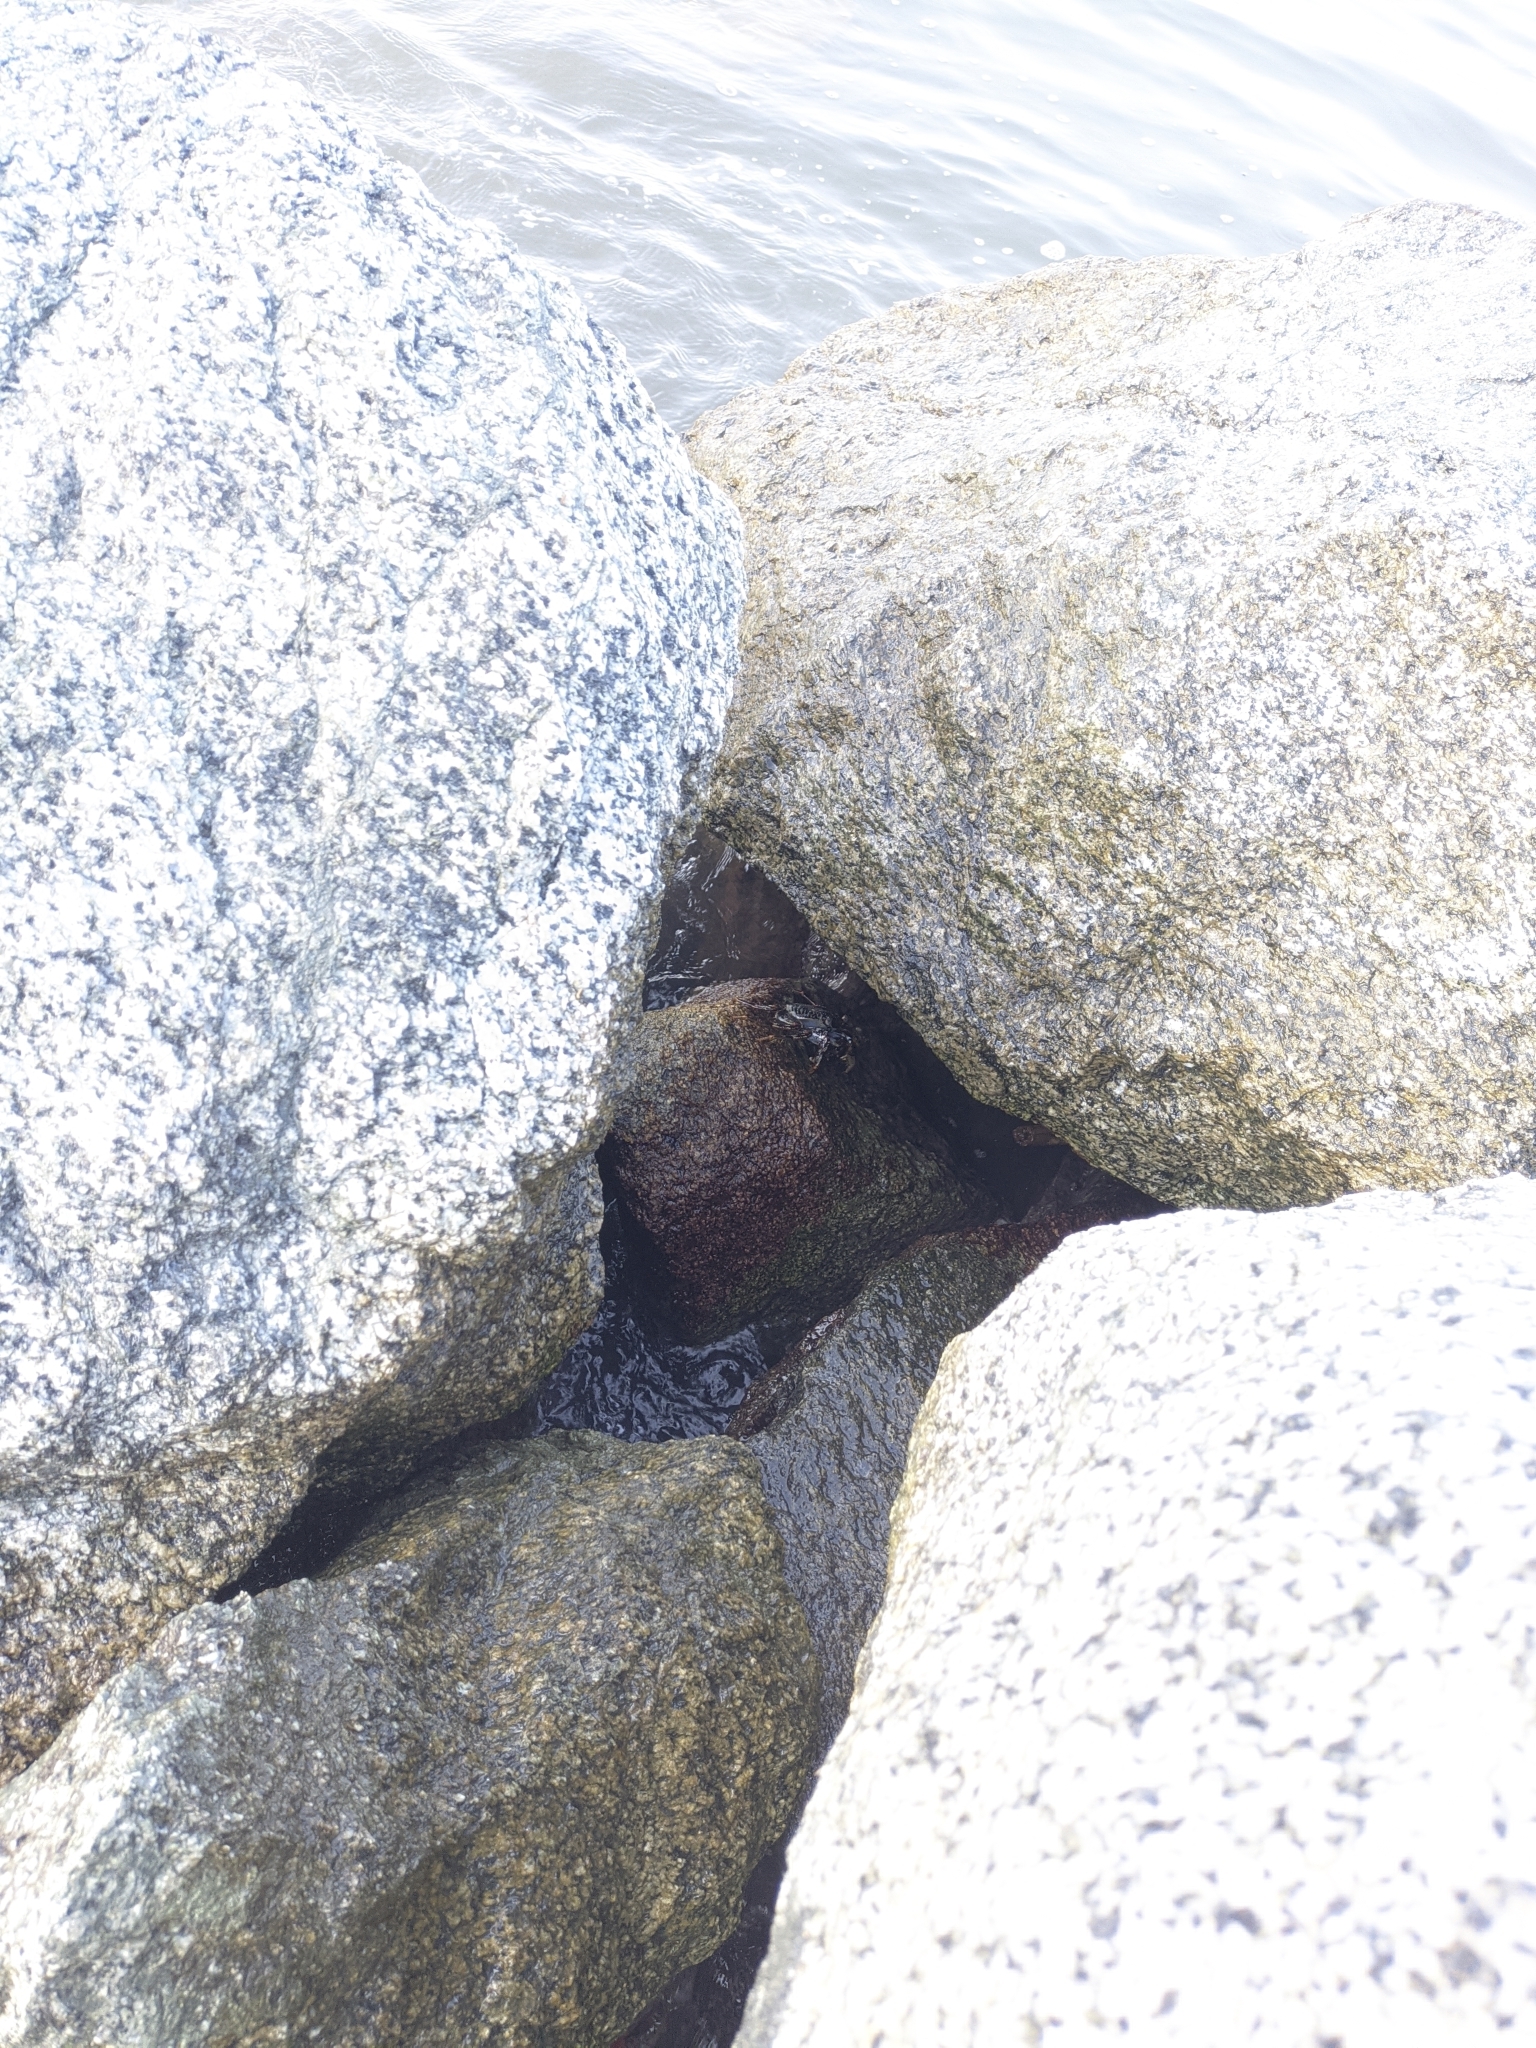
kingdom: Animalia
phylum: Arthropoda
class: Malacostraca
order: Decapoda
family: Grapsidae
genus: Grapsus
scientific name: Grapsus grapsus
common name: Sally lightfoot
